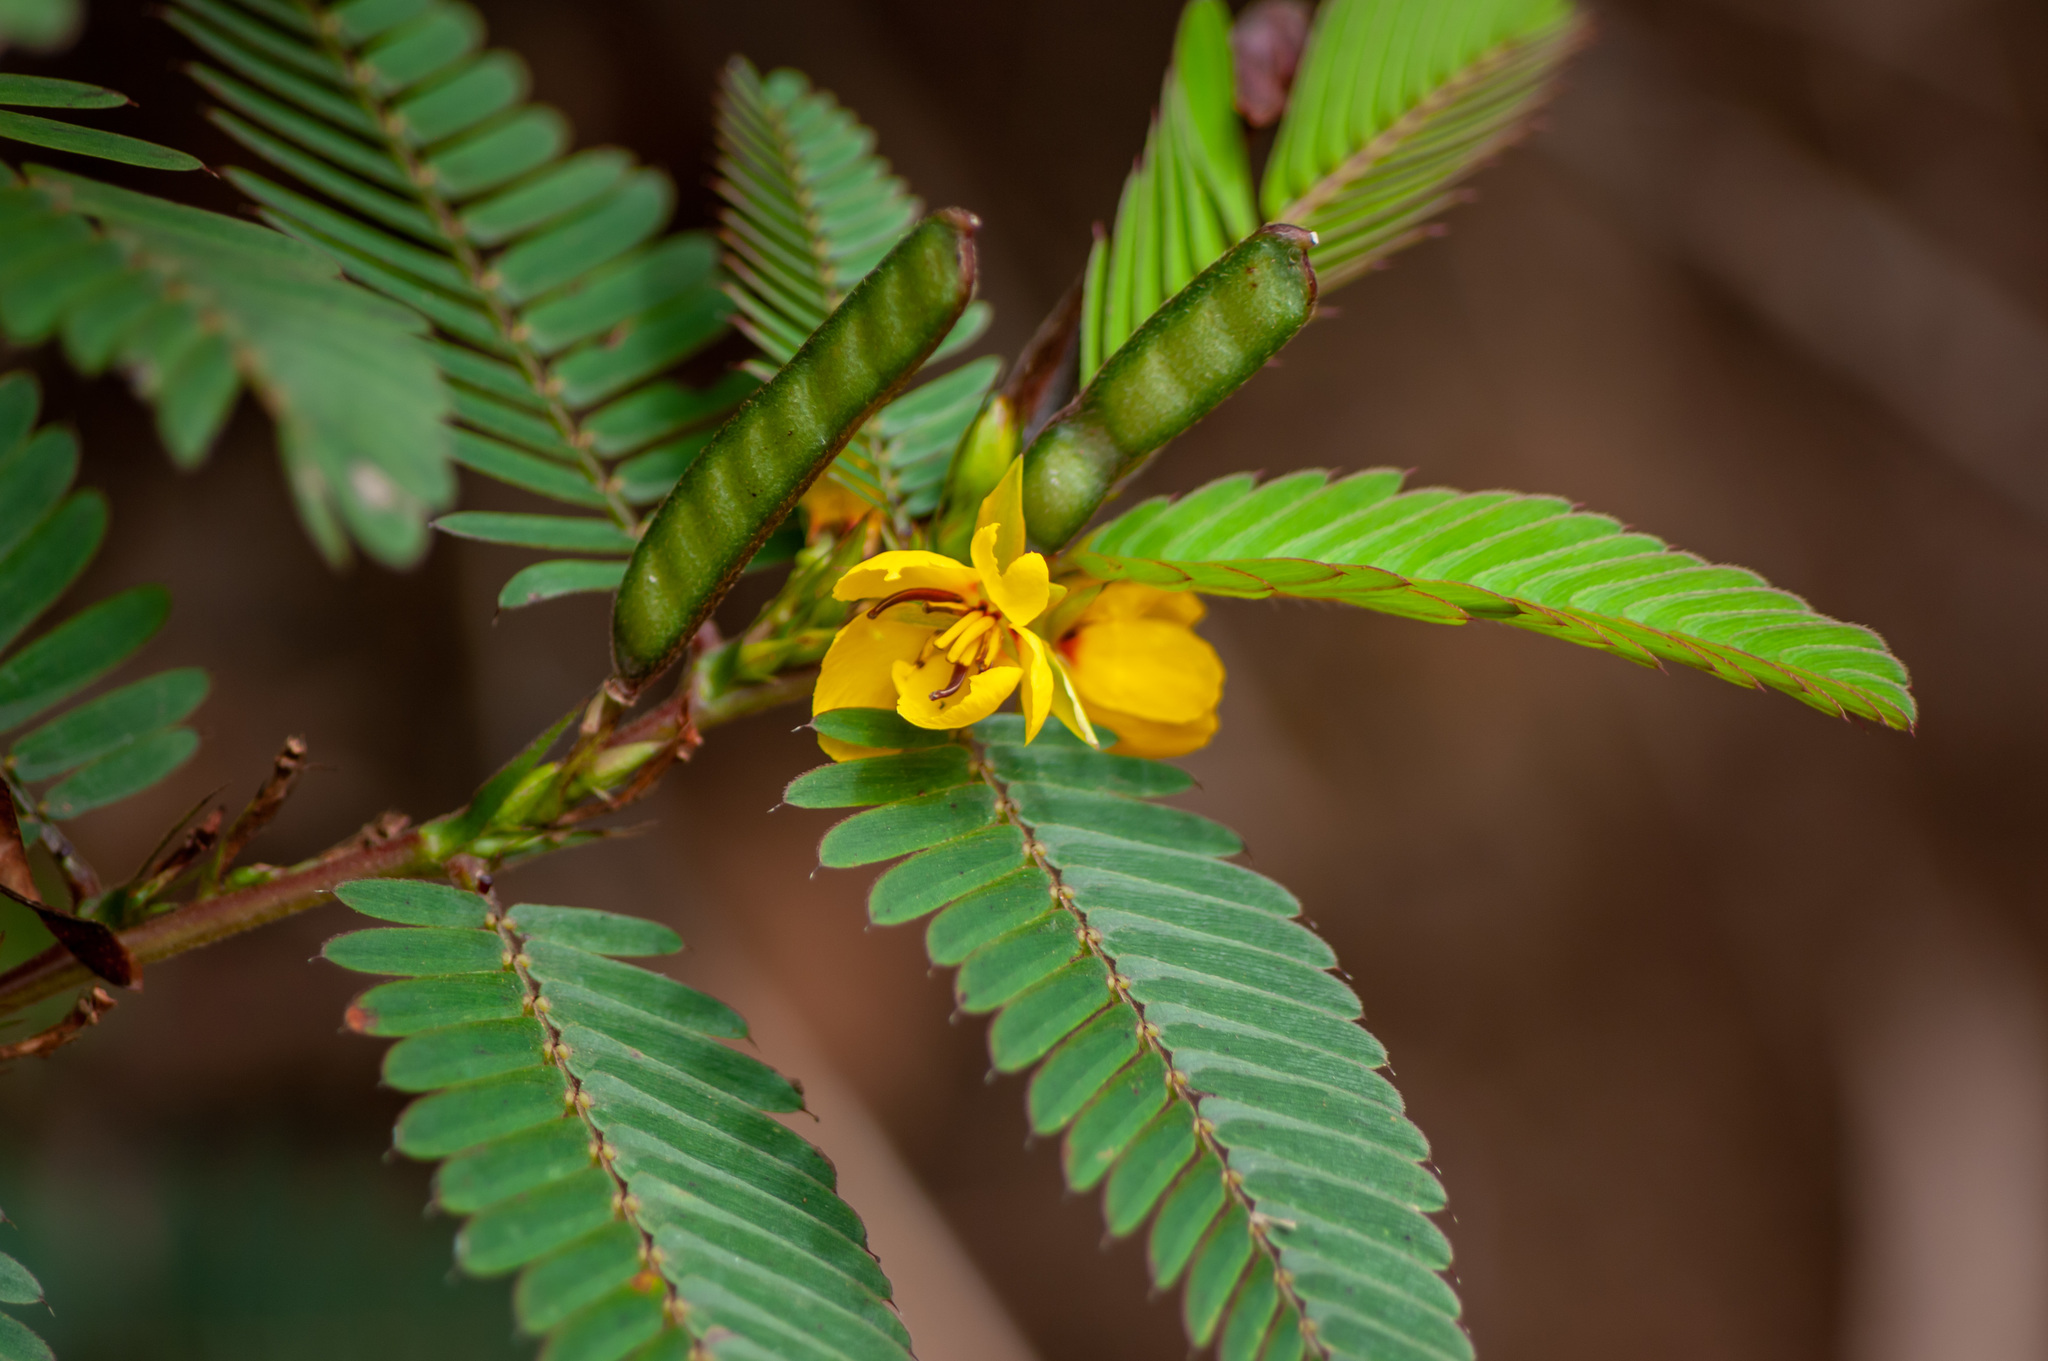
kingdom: Plantae
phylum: Tracheophyta
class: Magnoliopsida
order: Fabales
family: Fabaceae
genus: Chamaecrista
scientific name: Chamaecrista nictitans
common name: Sensitive cassia
